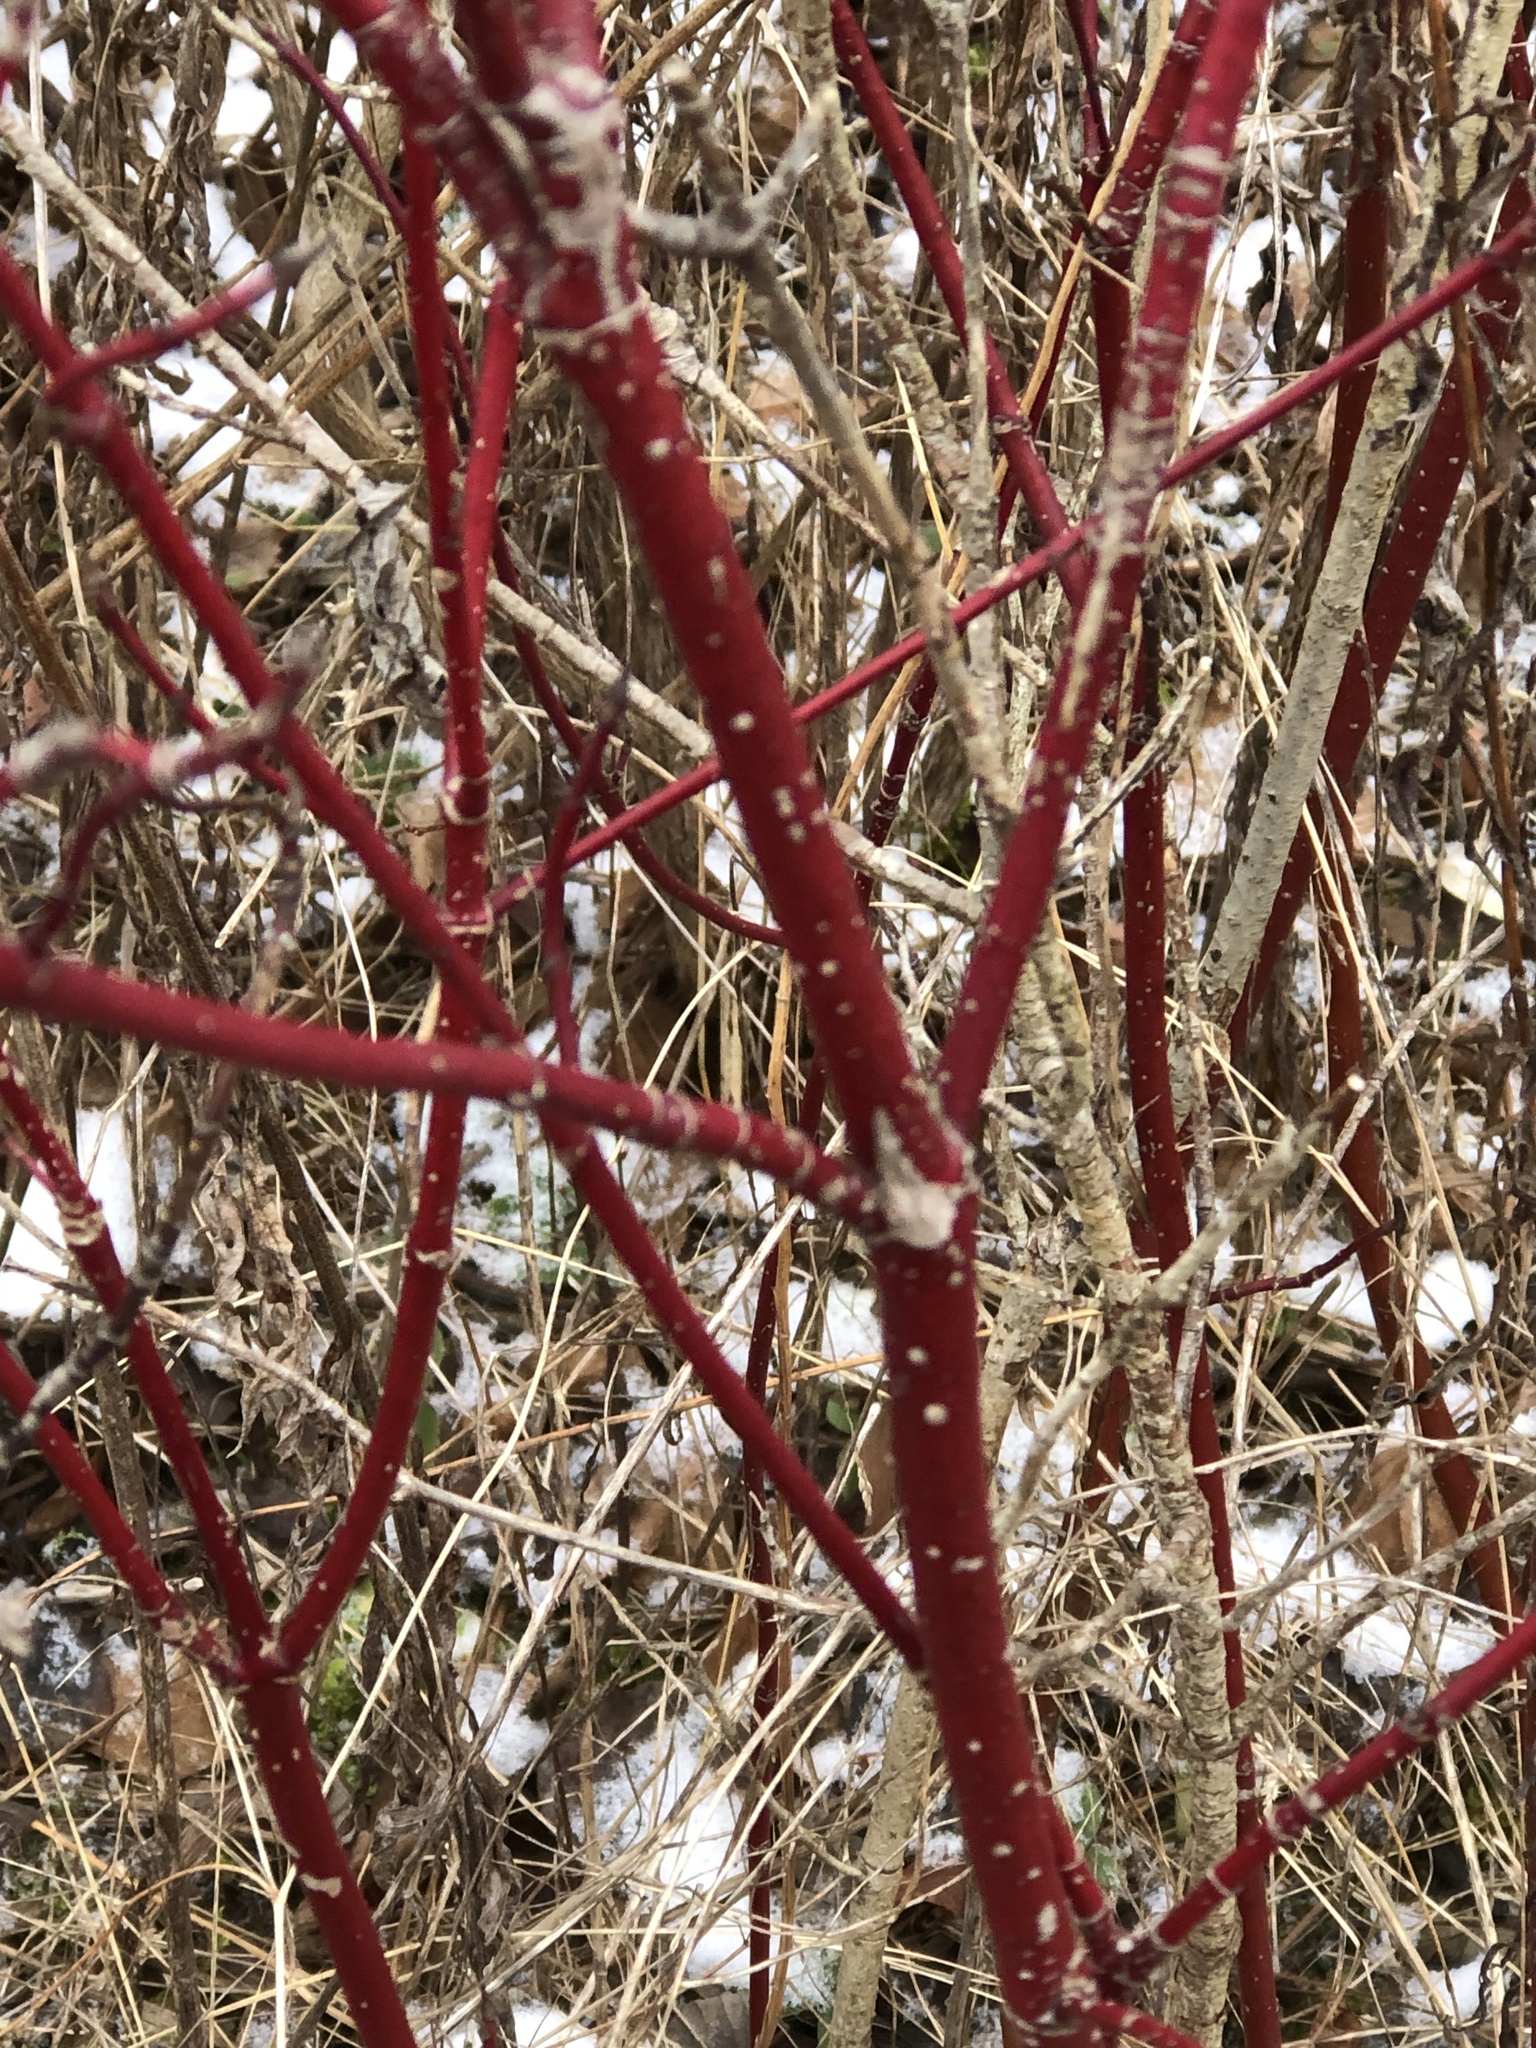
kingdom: Plantae
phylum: Tracheophyta
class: Magnoliopsida
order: Cornales
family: Cornaceae
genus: Cornus
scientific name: Cornus sericea
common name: Red-osier dogwood
